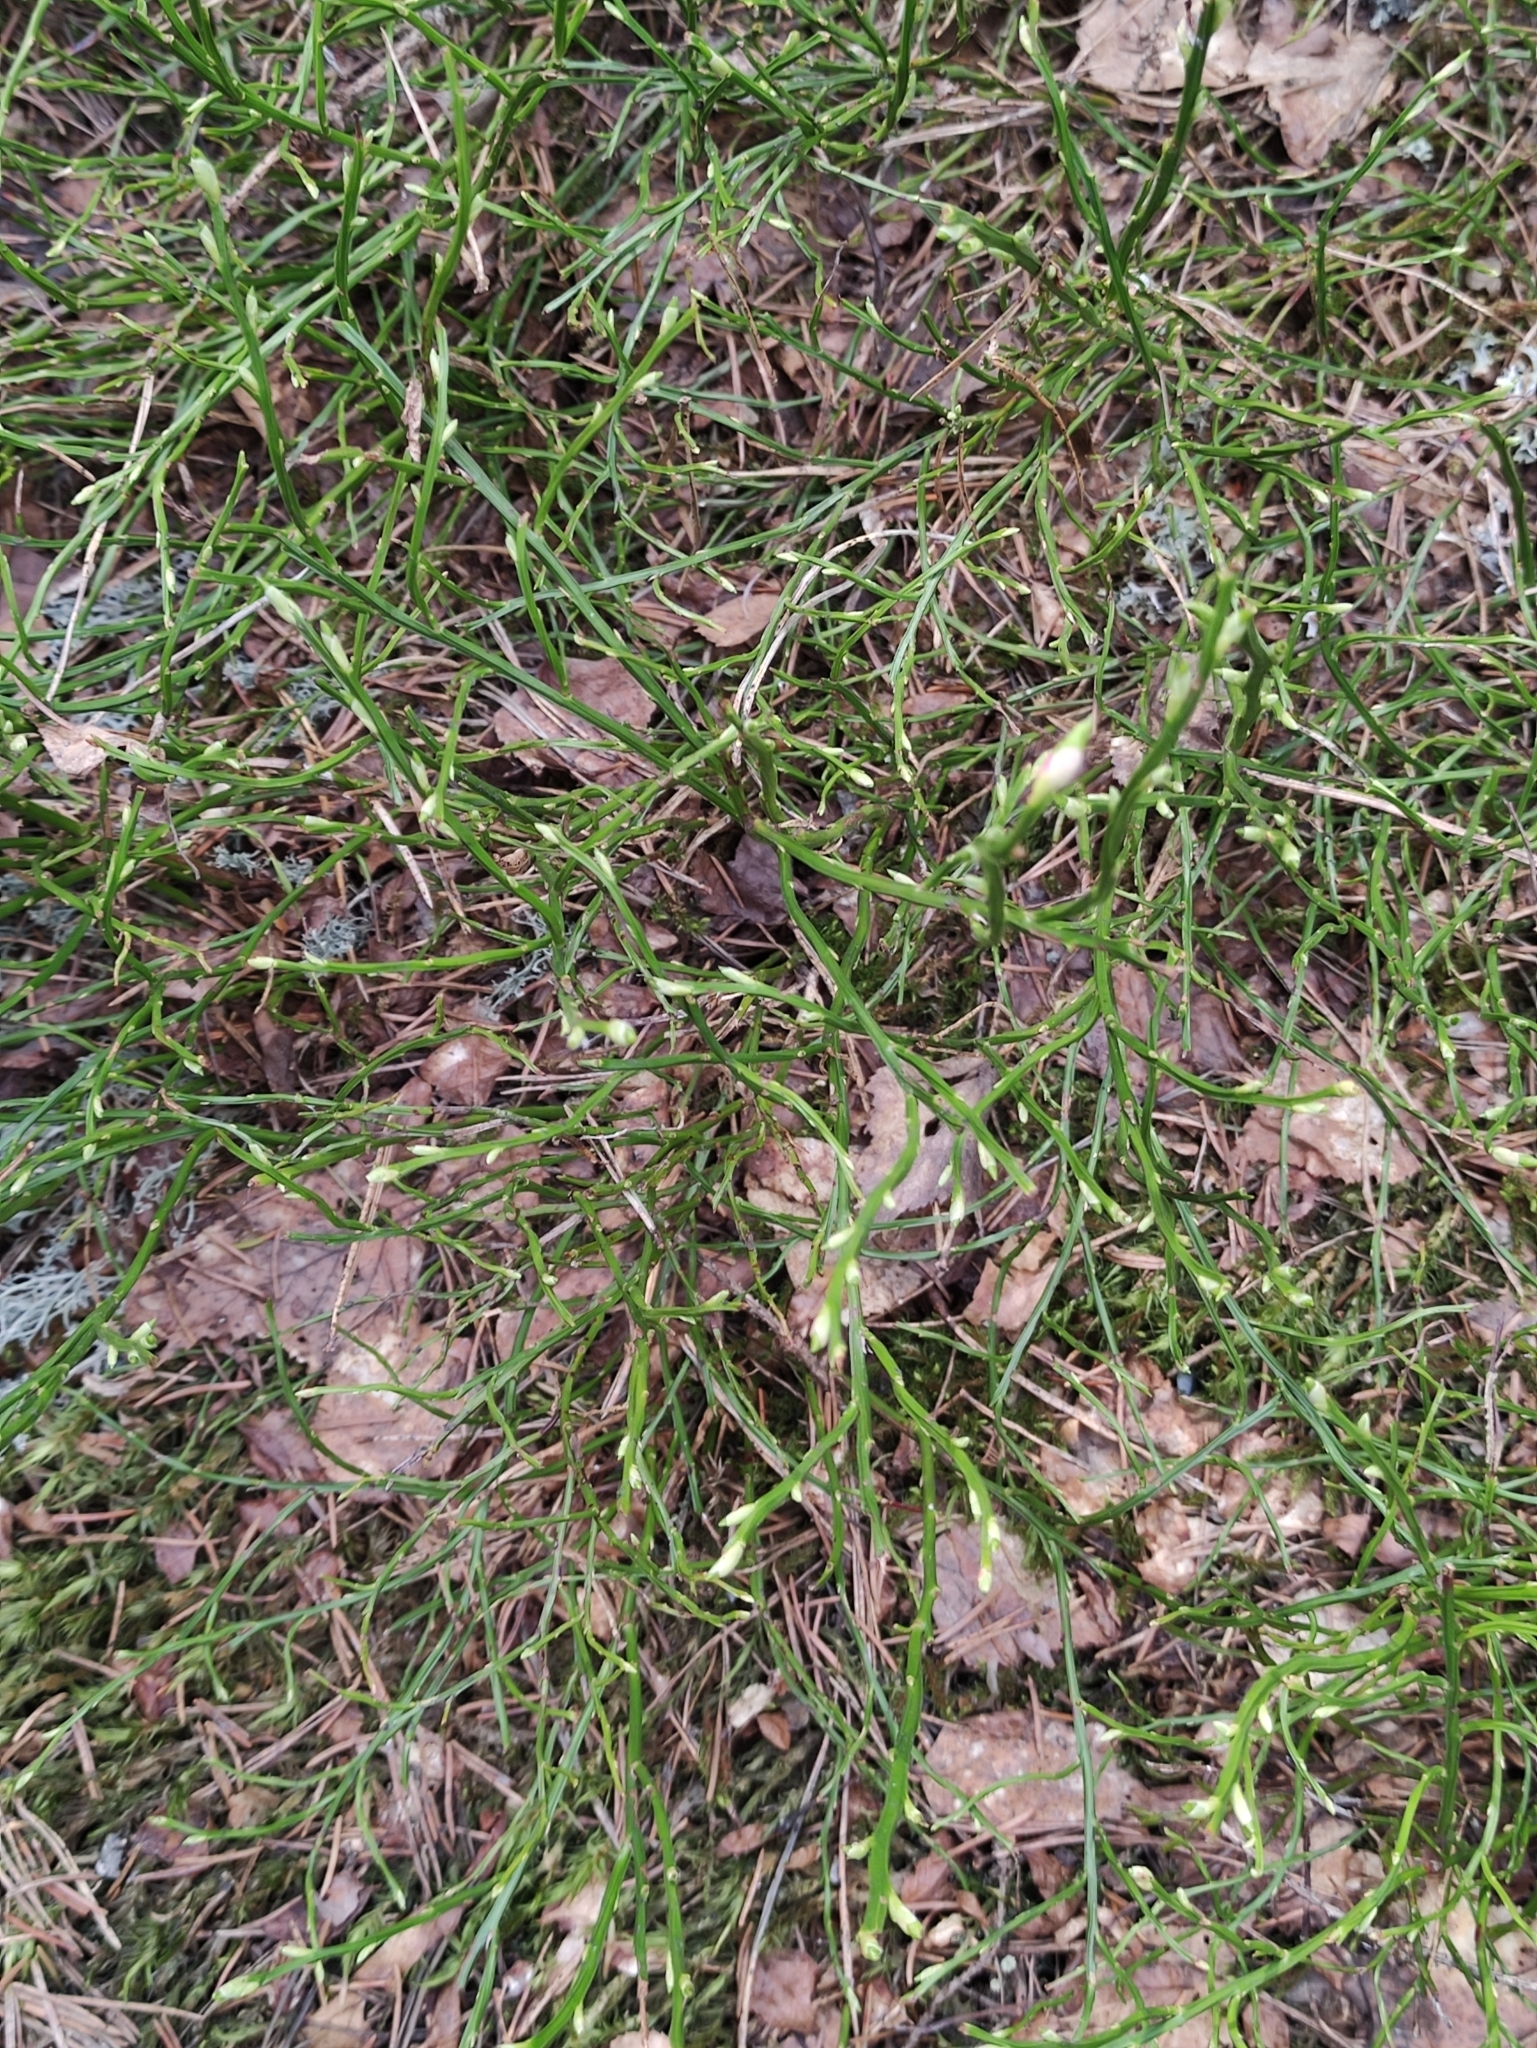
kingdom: Plantae
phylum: Tracheophyta
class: Magnoliopsida
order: Ericales
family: Ericaceae
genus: Vaccinium
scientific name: Vaccinium myrtillus
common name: Bilberry
